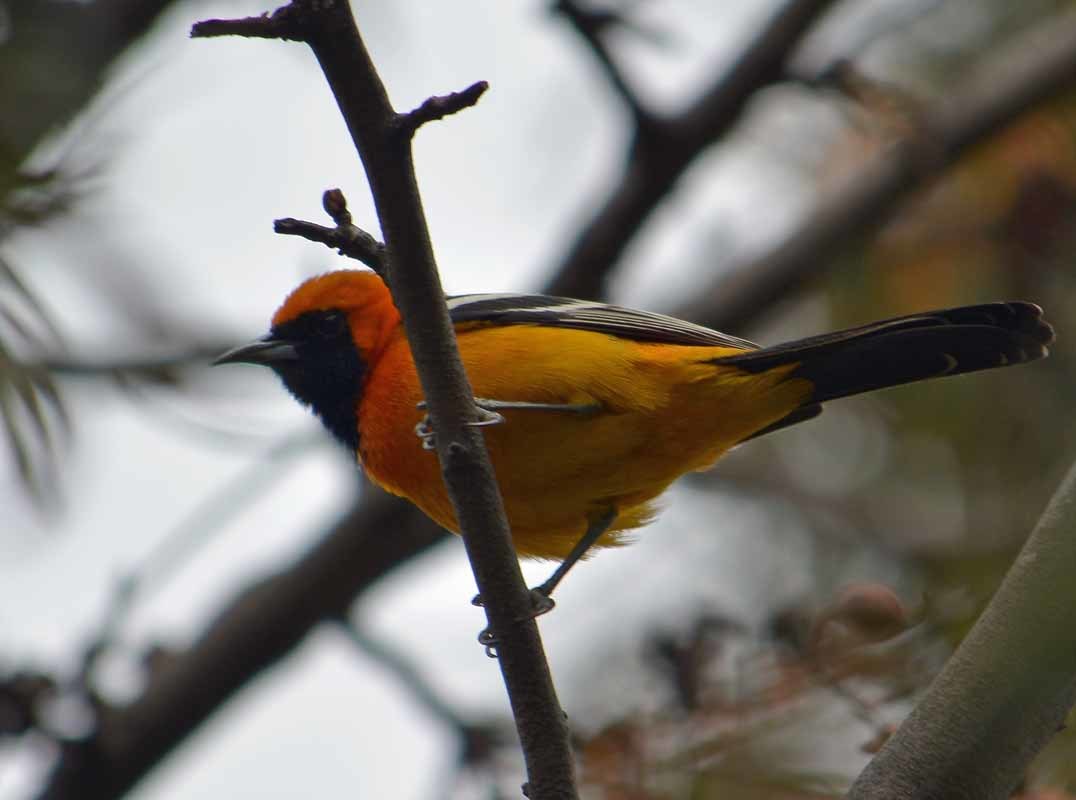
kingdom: Animalia
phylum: Chordata
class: Aves
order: Passeriformes
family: Icteridae
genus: Icterus
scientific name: Icterus cucullatus
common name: Hooded oriole
